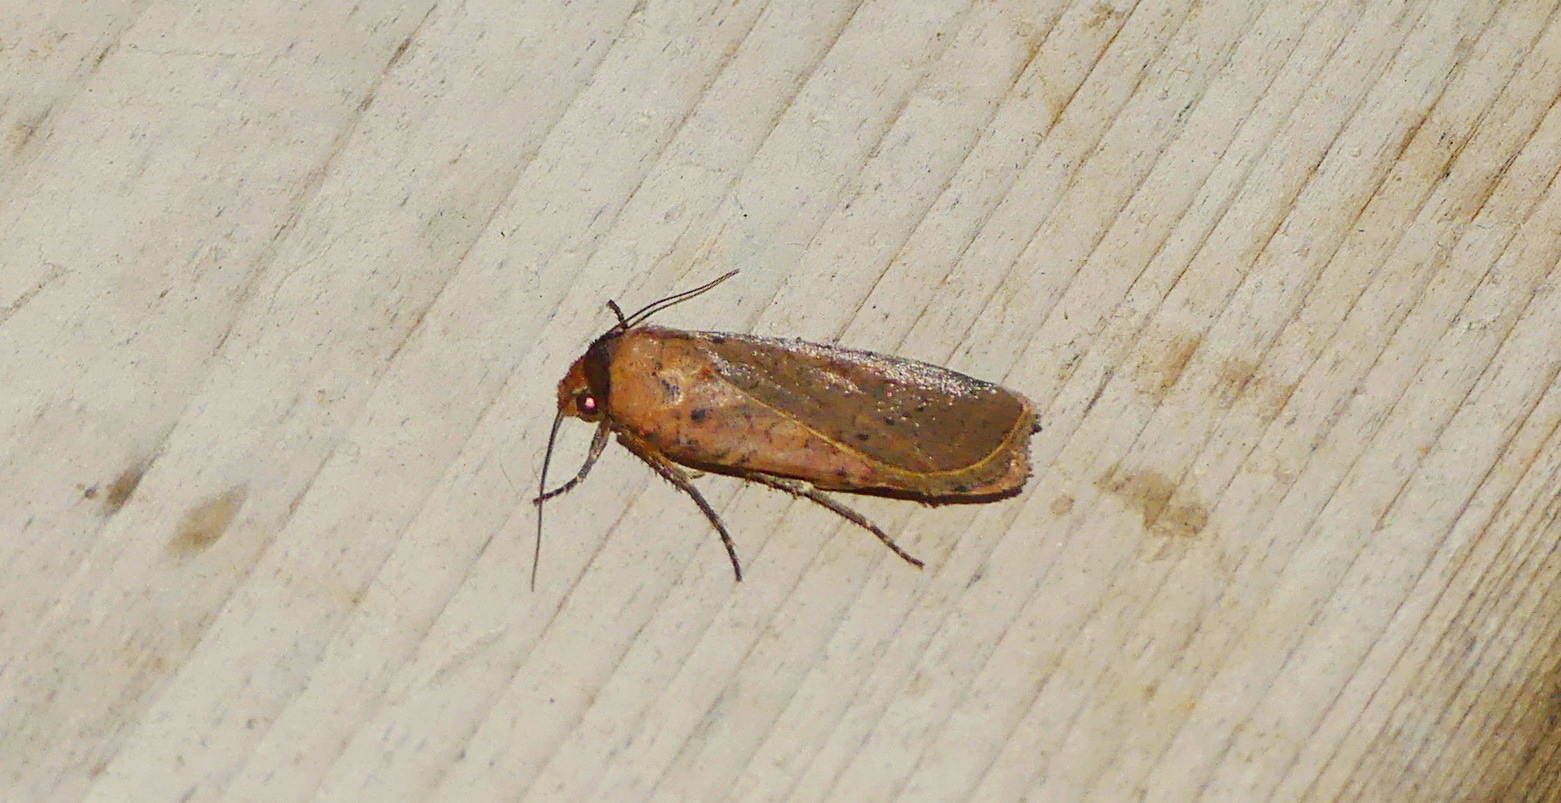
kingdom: Animalia
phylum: Arthropoda
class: Insecta
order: Lepidoptera
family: Noctuidae
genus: Protolampra
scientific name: Protolampra brunneicollis
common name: Brown-collared dart
